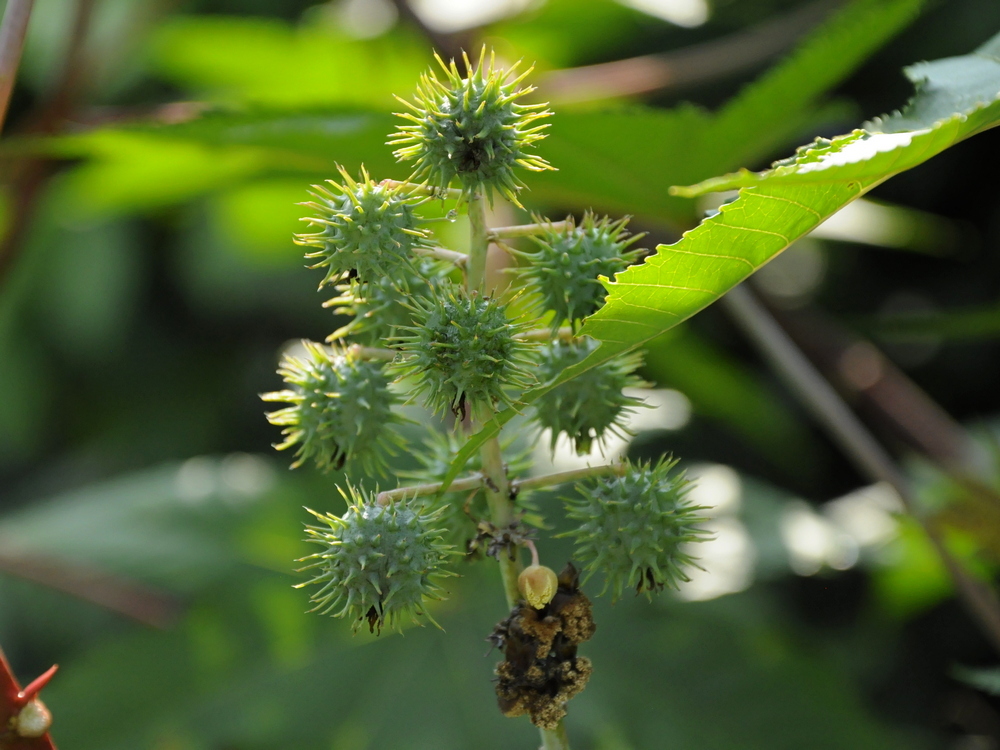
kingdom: Plantae
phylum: Tracheophyta
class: Magnoliopsida
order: Malpighiales
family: Euphorbiaceae
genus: Ricinus
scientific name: Ricinus communis
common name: Castor-oil-plant
